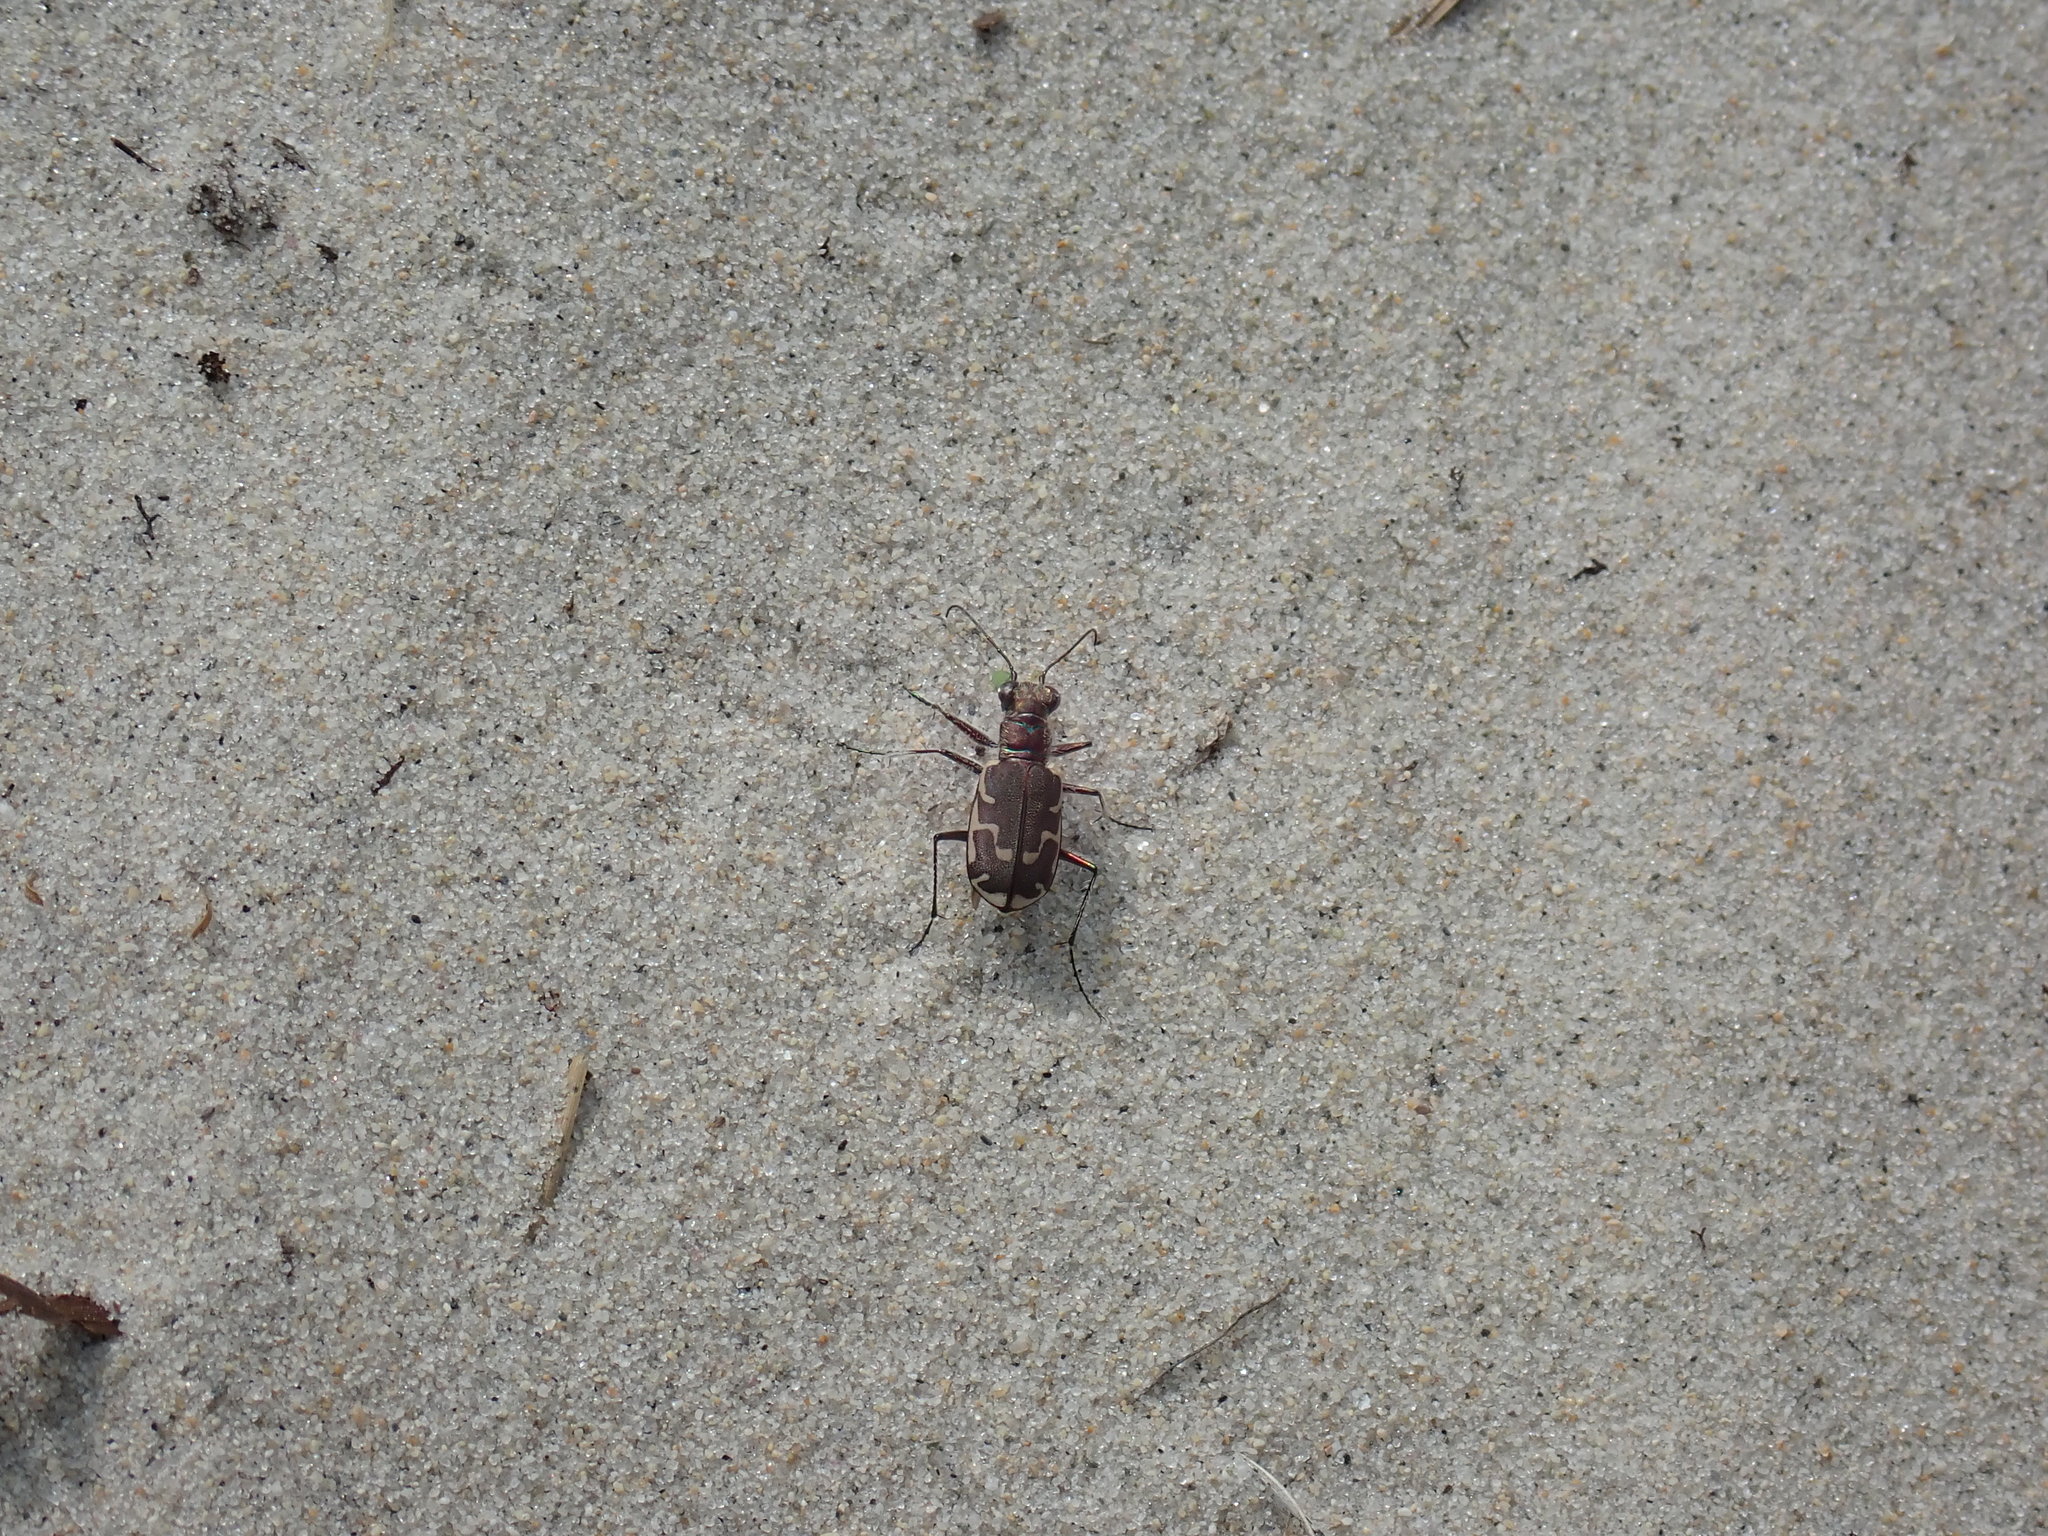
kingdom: Animalia
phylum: Arthropoda
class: Insecta
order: Coleoptera
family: Carabidae
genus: Cicindela
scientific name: Cicindela repanda
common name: Bronzed tiger beetle
